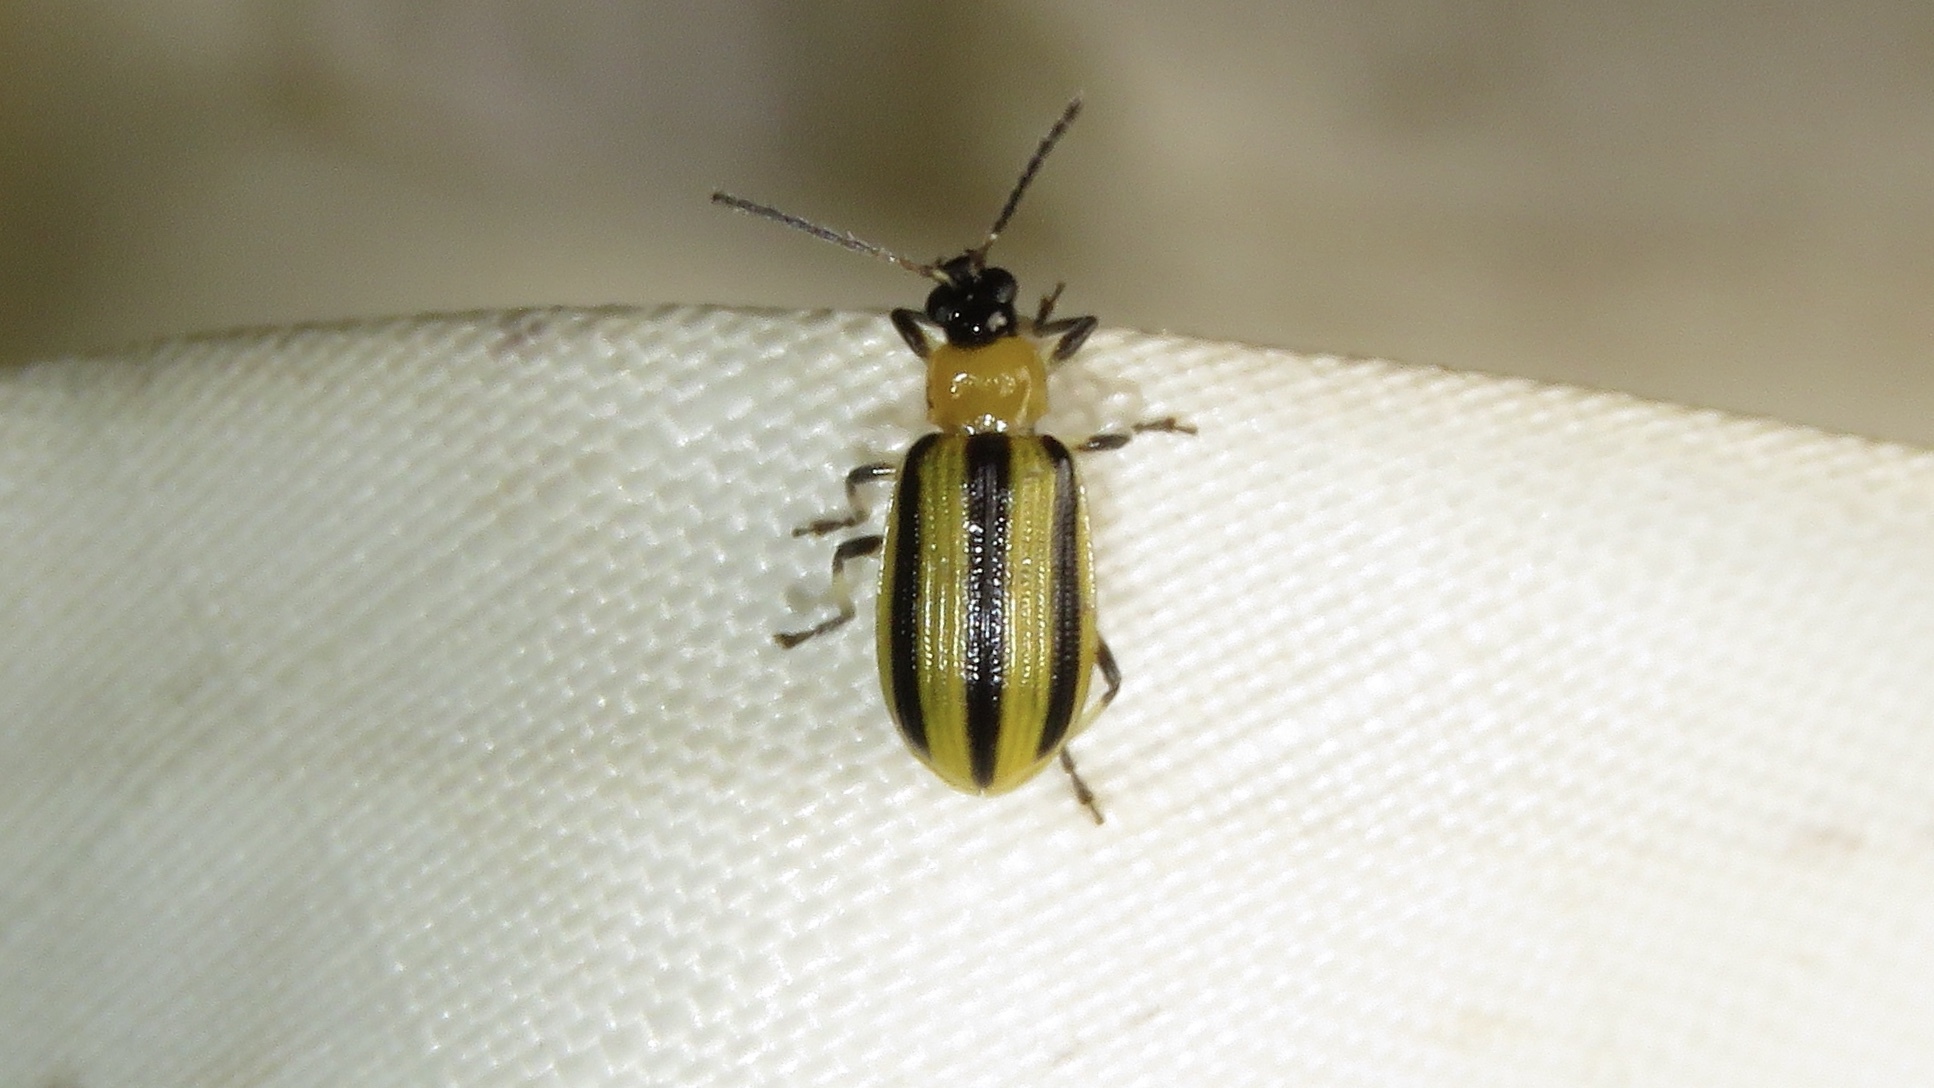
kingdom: Animalia
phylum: Arthropoda
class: Insecta
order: Coleoptera
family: Chrysomelidae
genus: Acalymma
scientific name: Acalymma vittatum
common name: Striped cucumber beetle
